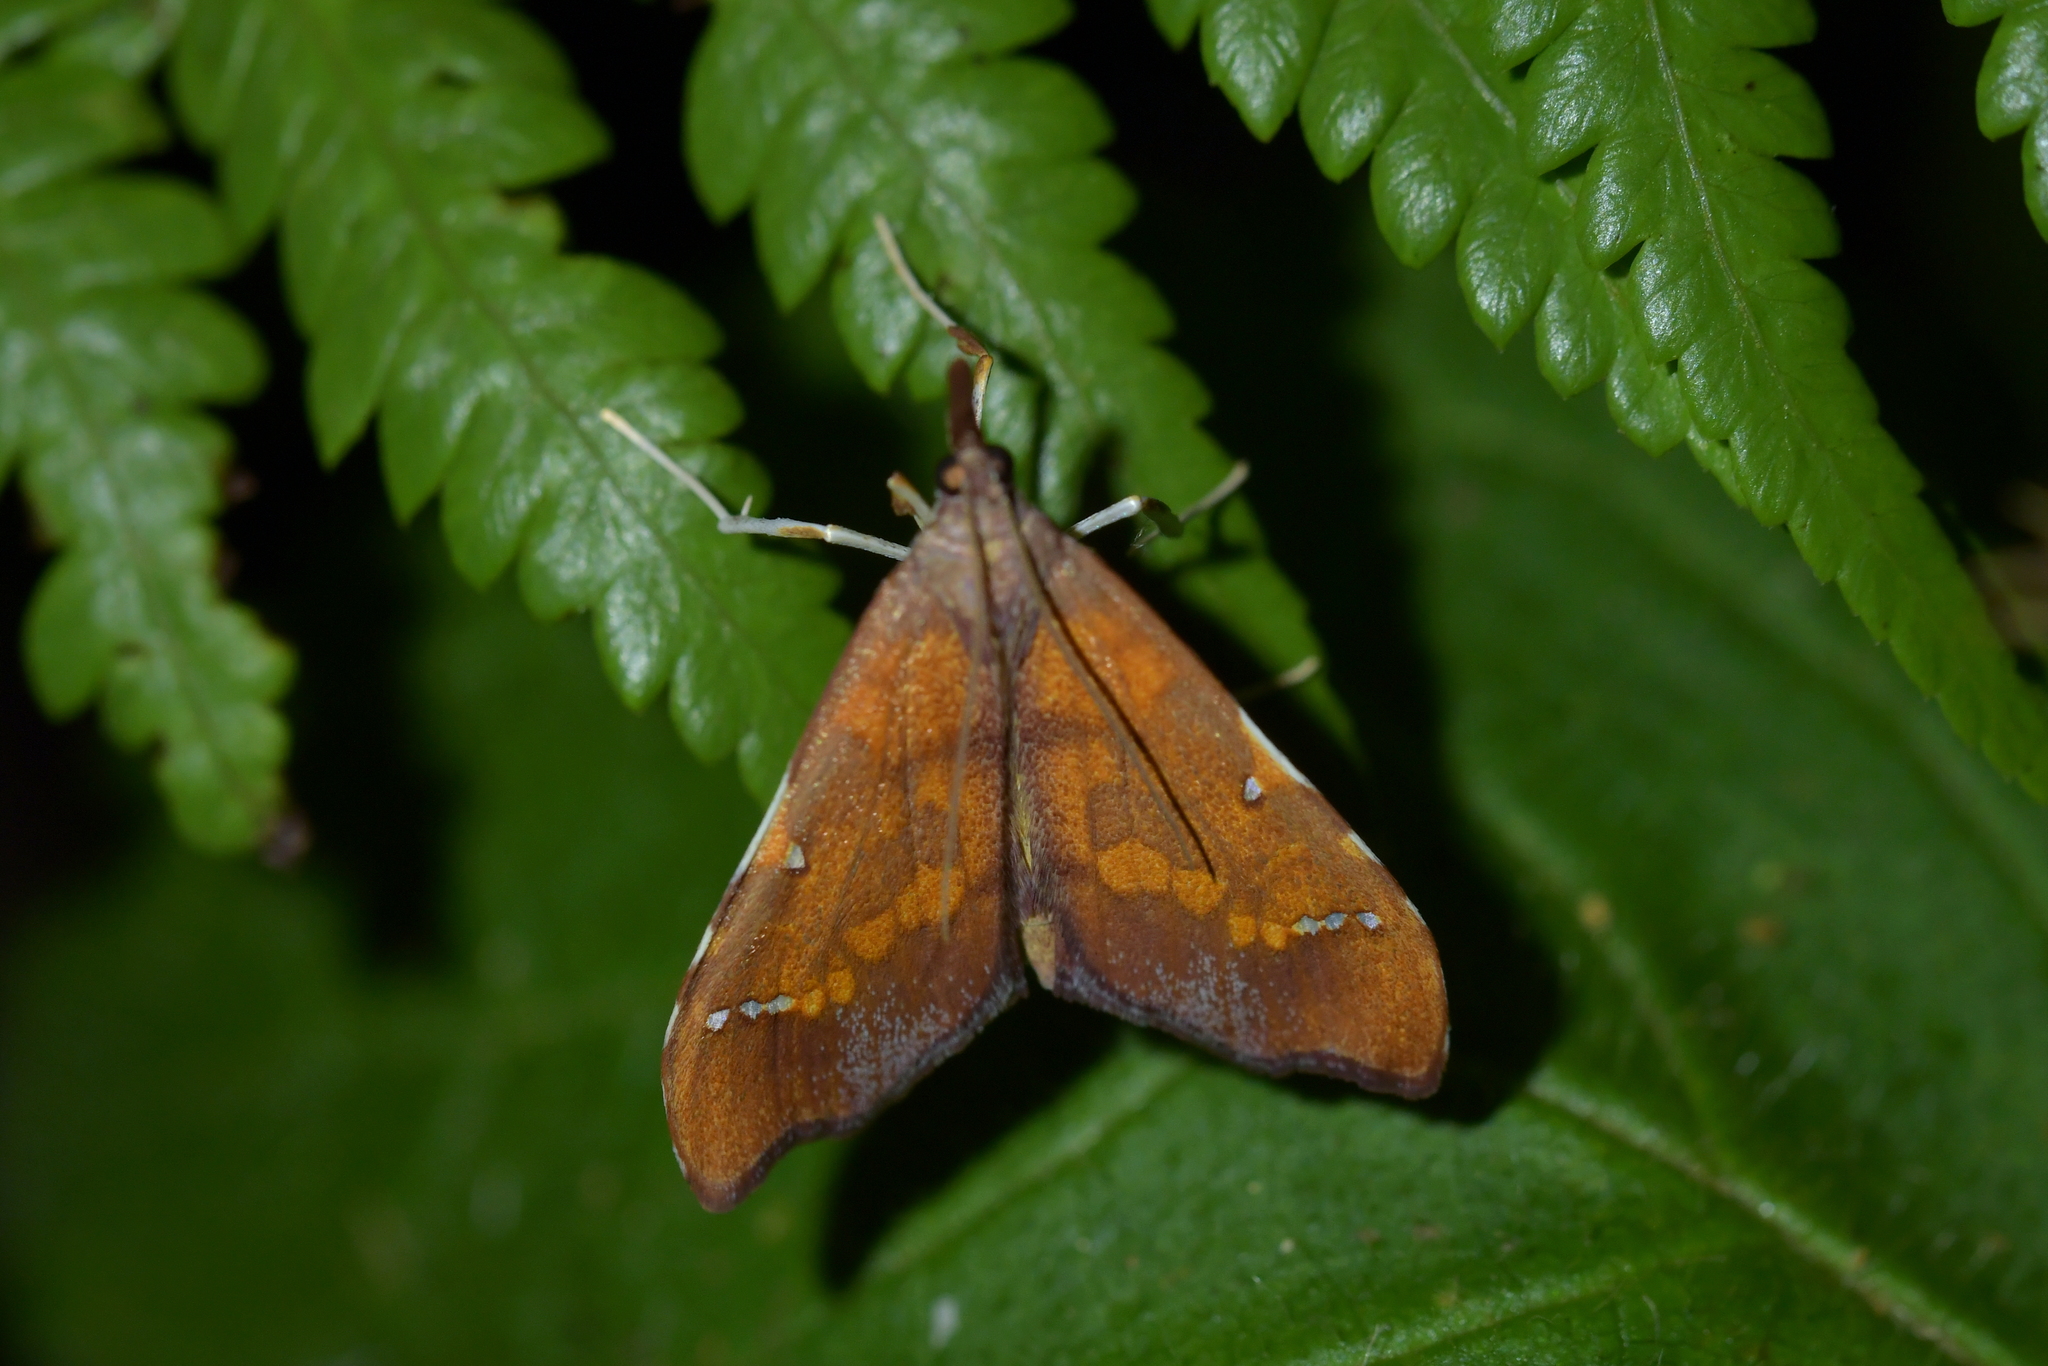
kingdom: Animalia
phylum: Arthropoda
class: Insecta
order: Lepidoptera
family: Crambidae
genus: Deana
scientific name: Deana hybreasalis
